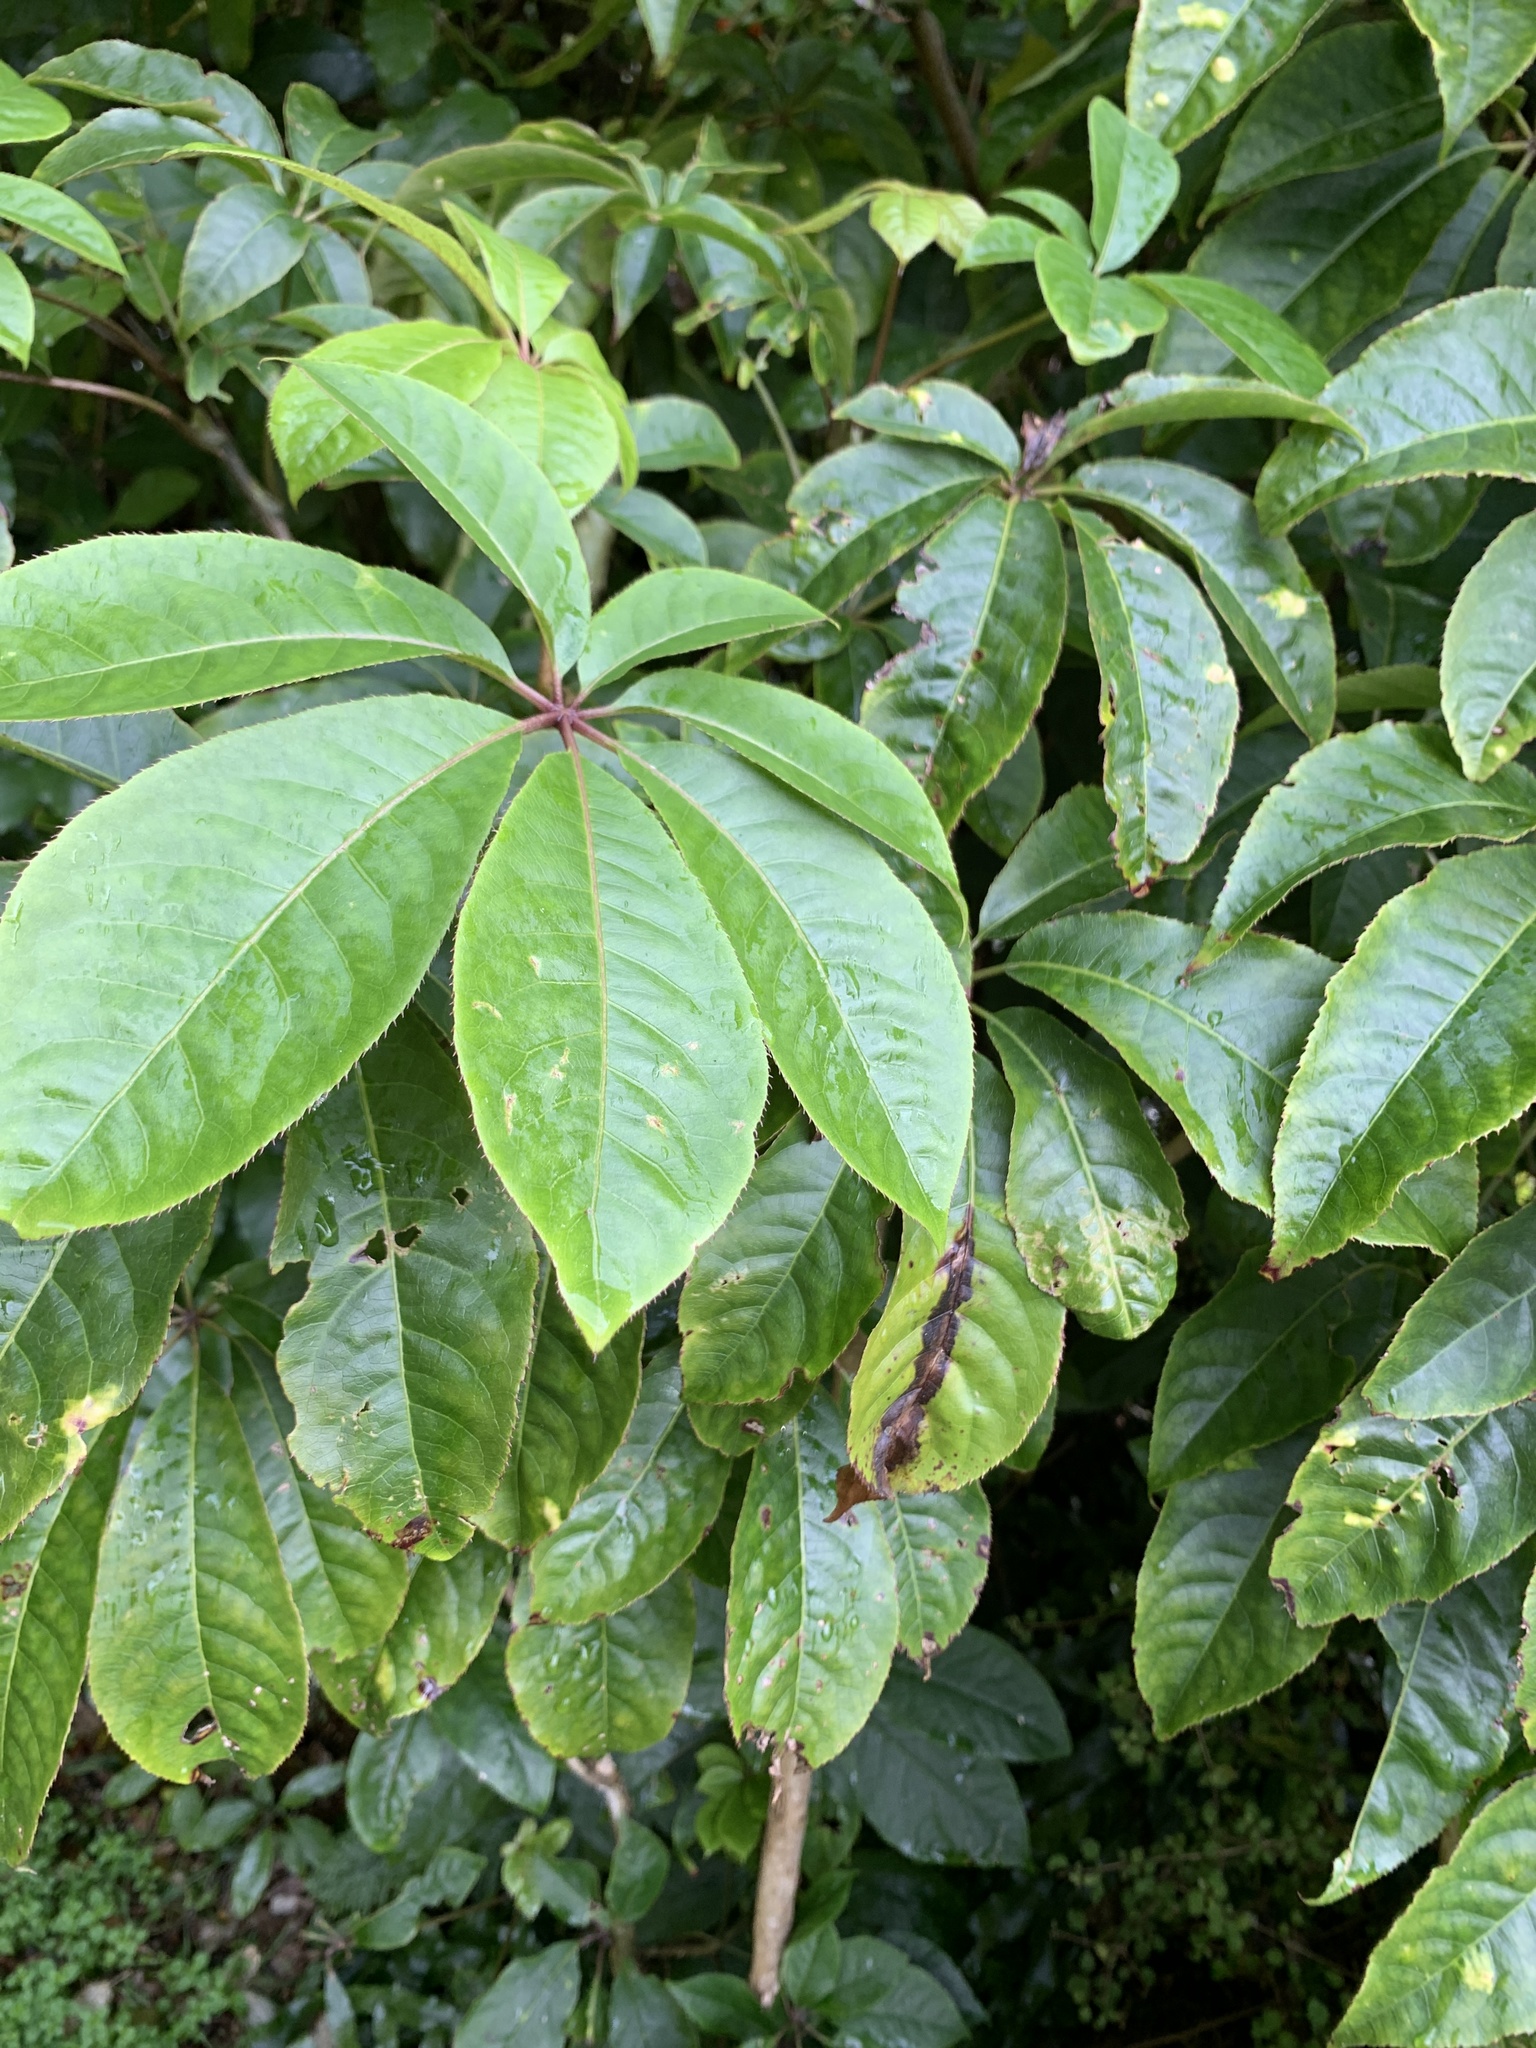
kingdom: Plantae
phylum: Tracheophyta
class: Magnoliopsida
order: Apiales
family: Araliaceae
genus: Schefflera
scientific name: Schefflera digitata
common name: Pate
